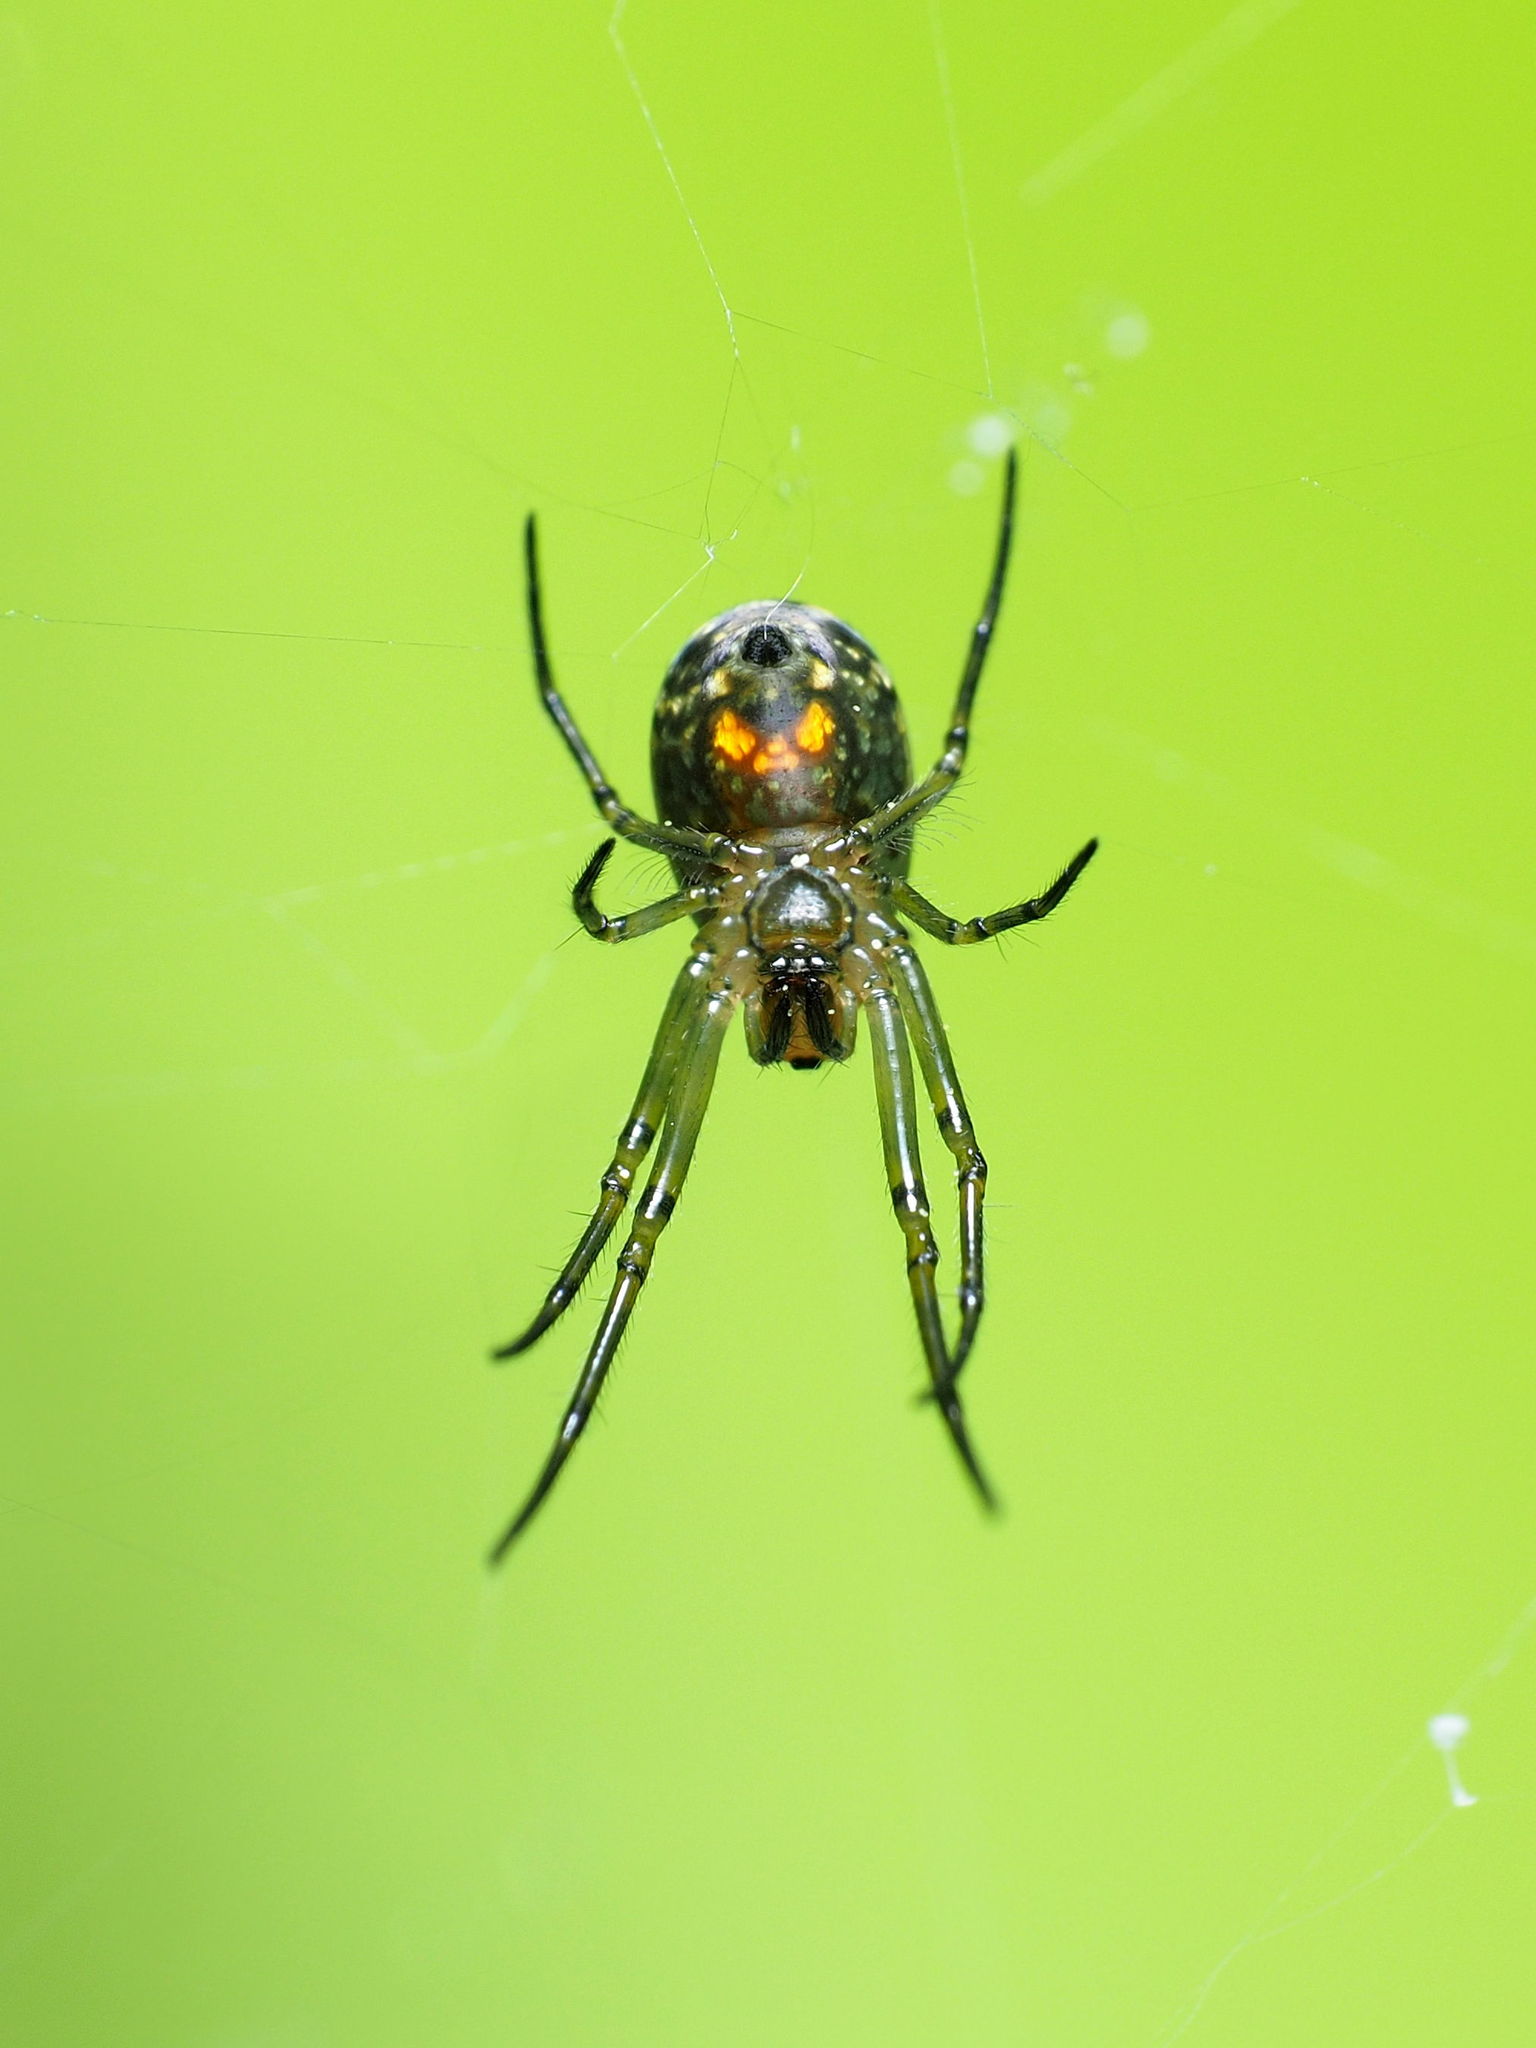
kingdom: Animalia
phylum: Arthropoda
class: Arachnida
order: Araneae
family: Tetragnathidae
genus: Leucauge
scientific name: Leucauge venusta
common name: Longjawed orb weavers
